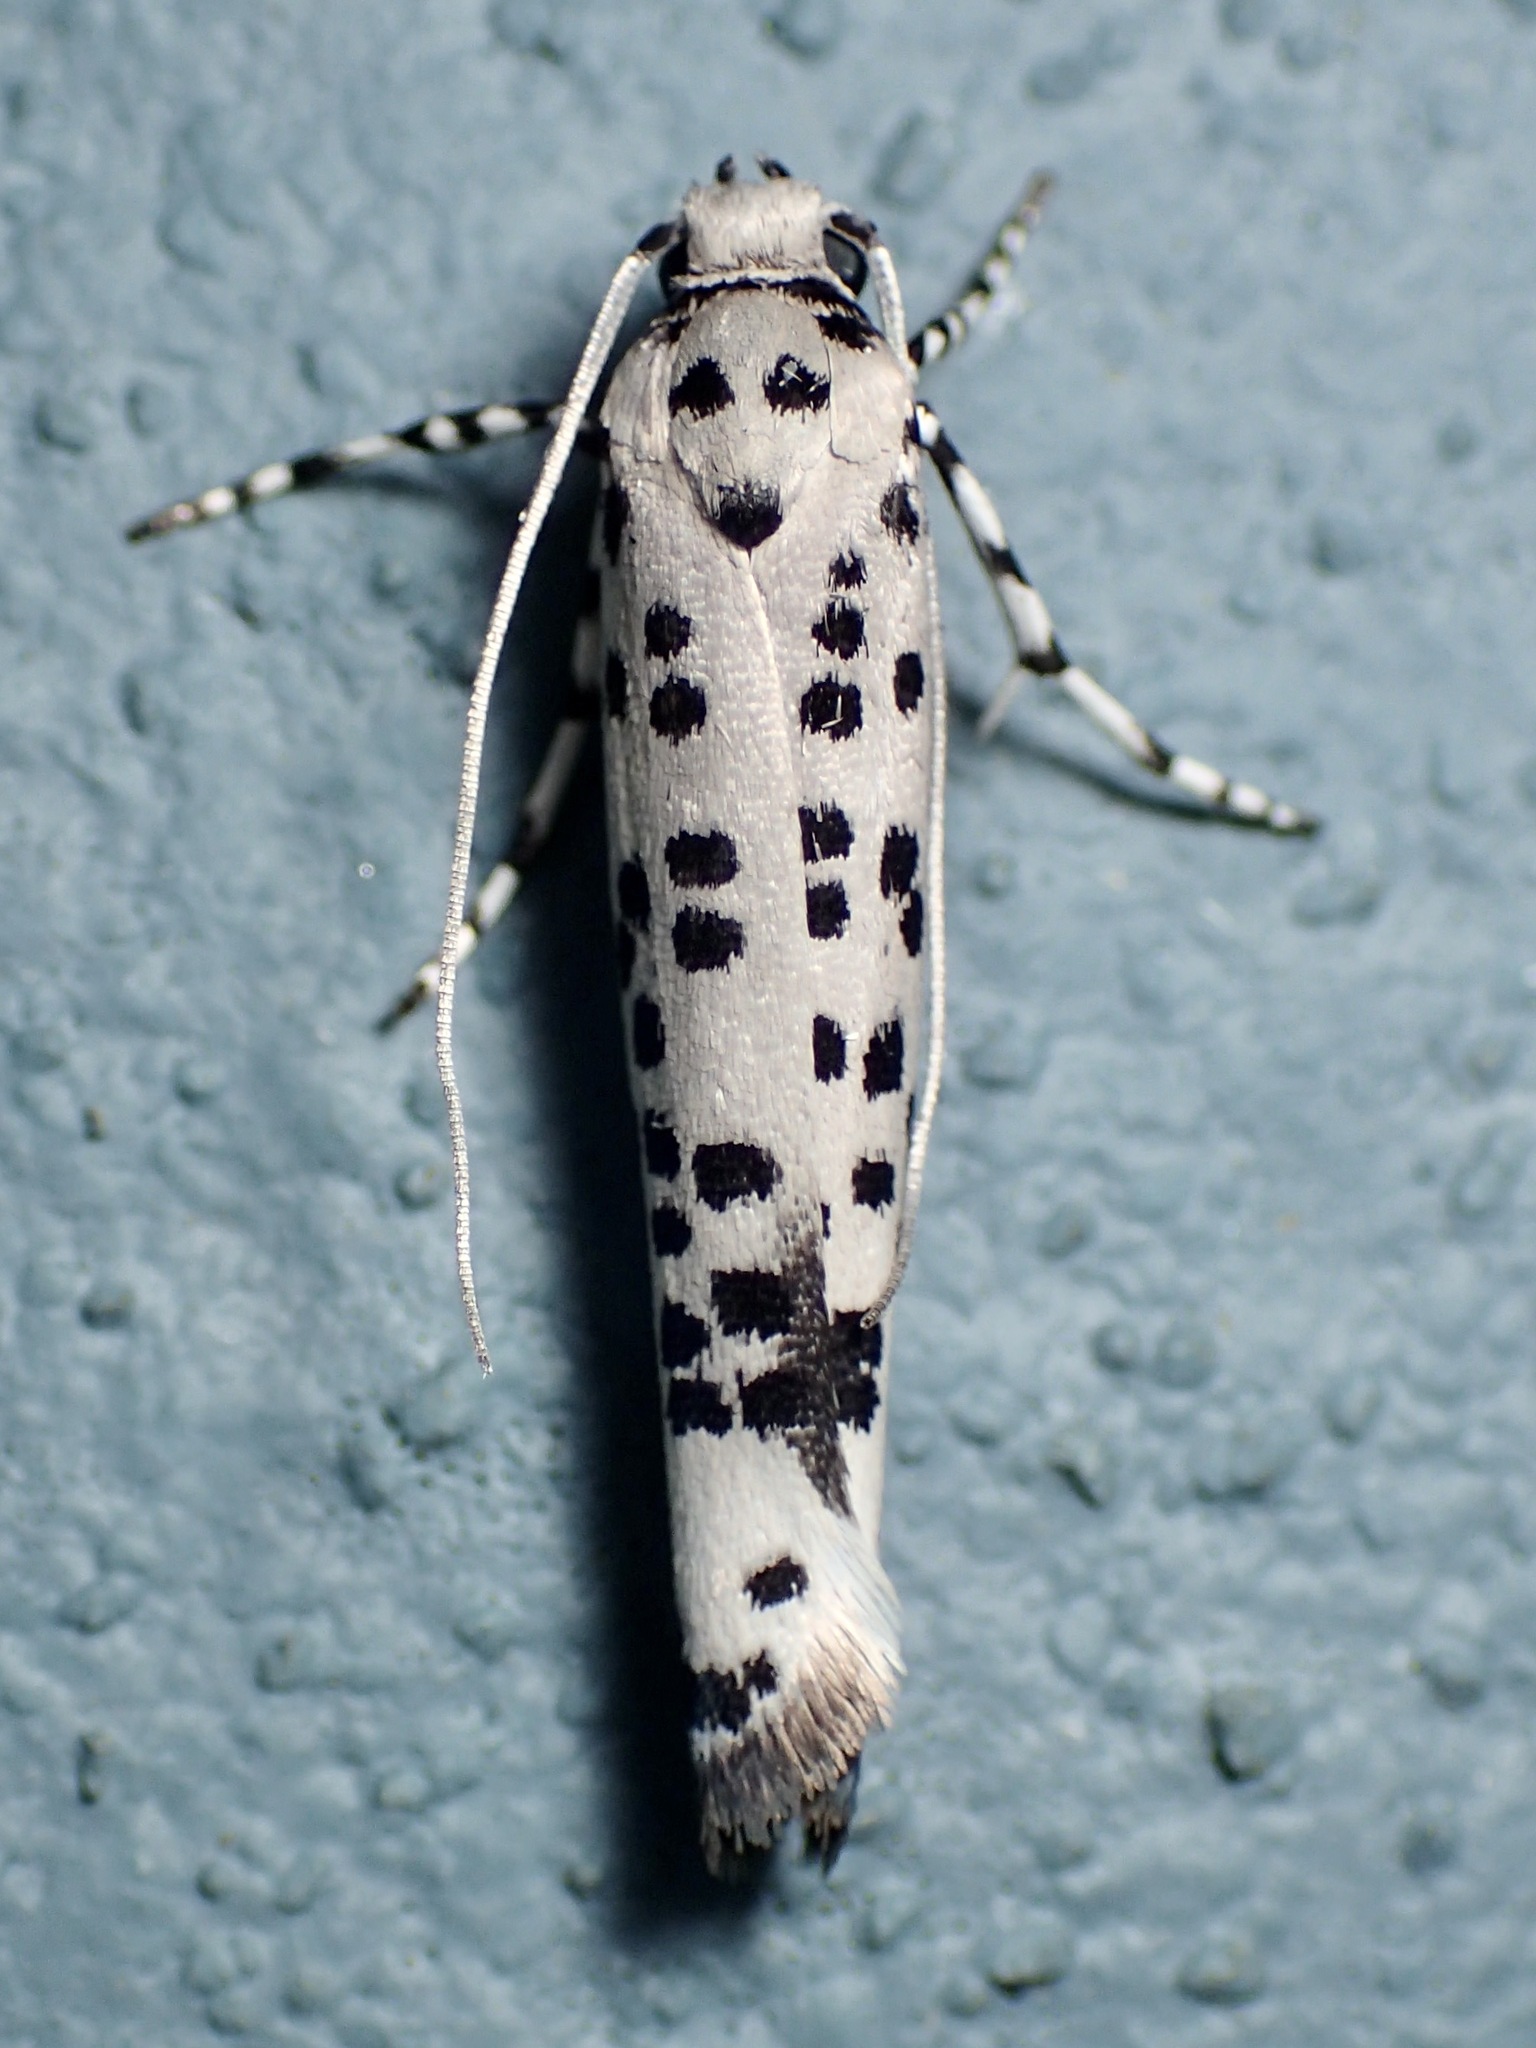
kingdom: Animalia
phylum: Arthropoda
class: Insecta
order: Lepidoptera
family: Yponomeutidae
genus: Yponomeuta
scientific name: Yponomeuta internellus
